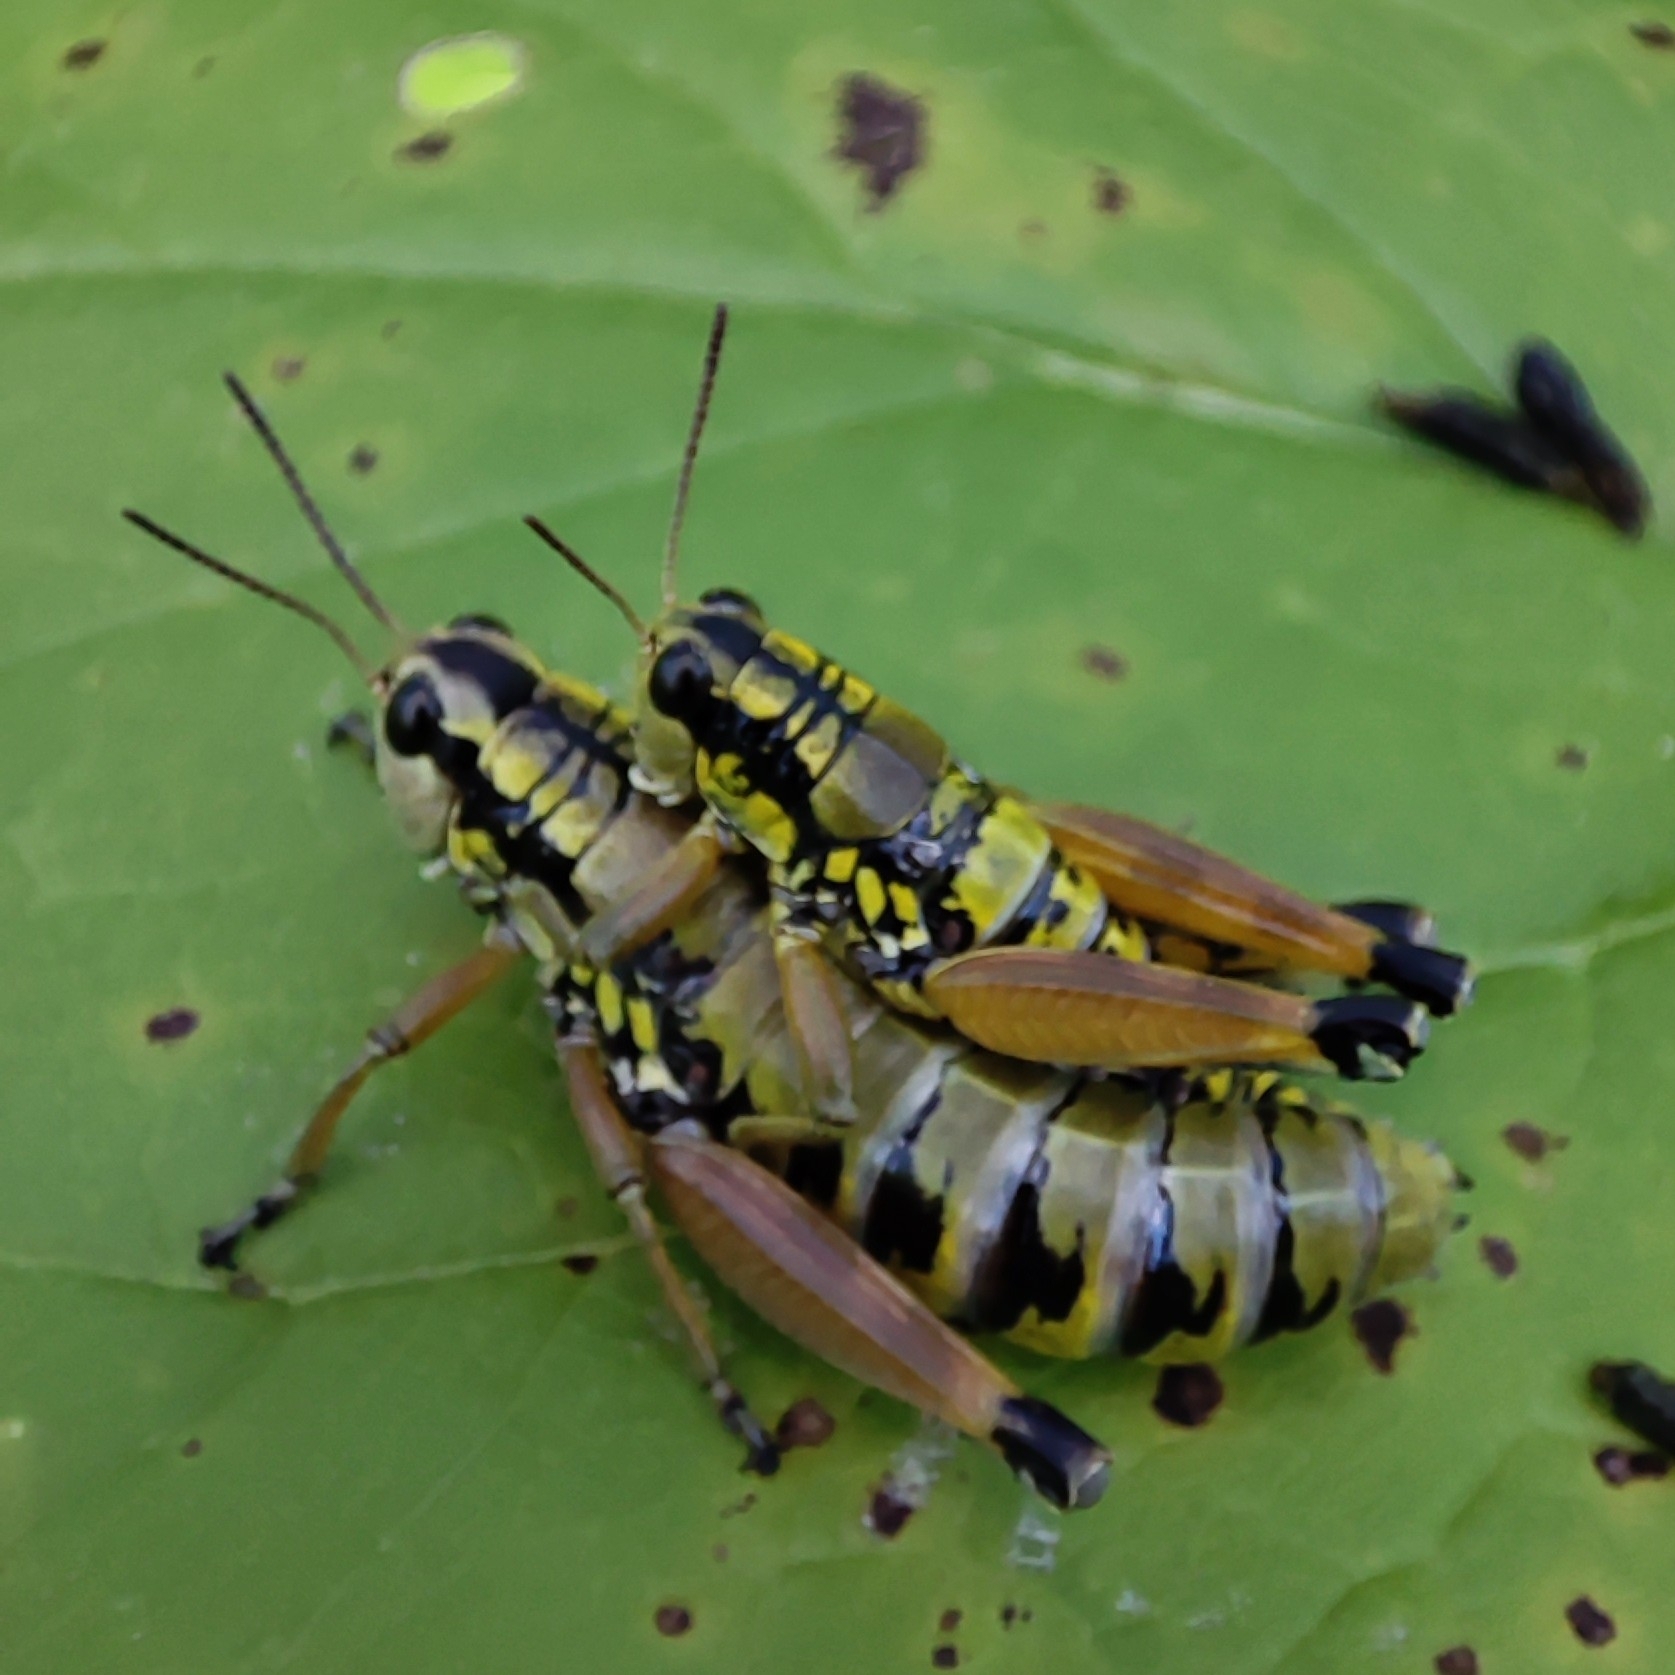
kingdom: Animalia
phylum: Arthropoda
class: Insecta
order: Orthoptera
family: Acrididae
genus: Podisma
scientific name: Podisma pedestris
